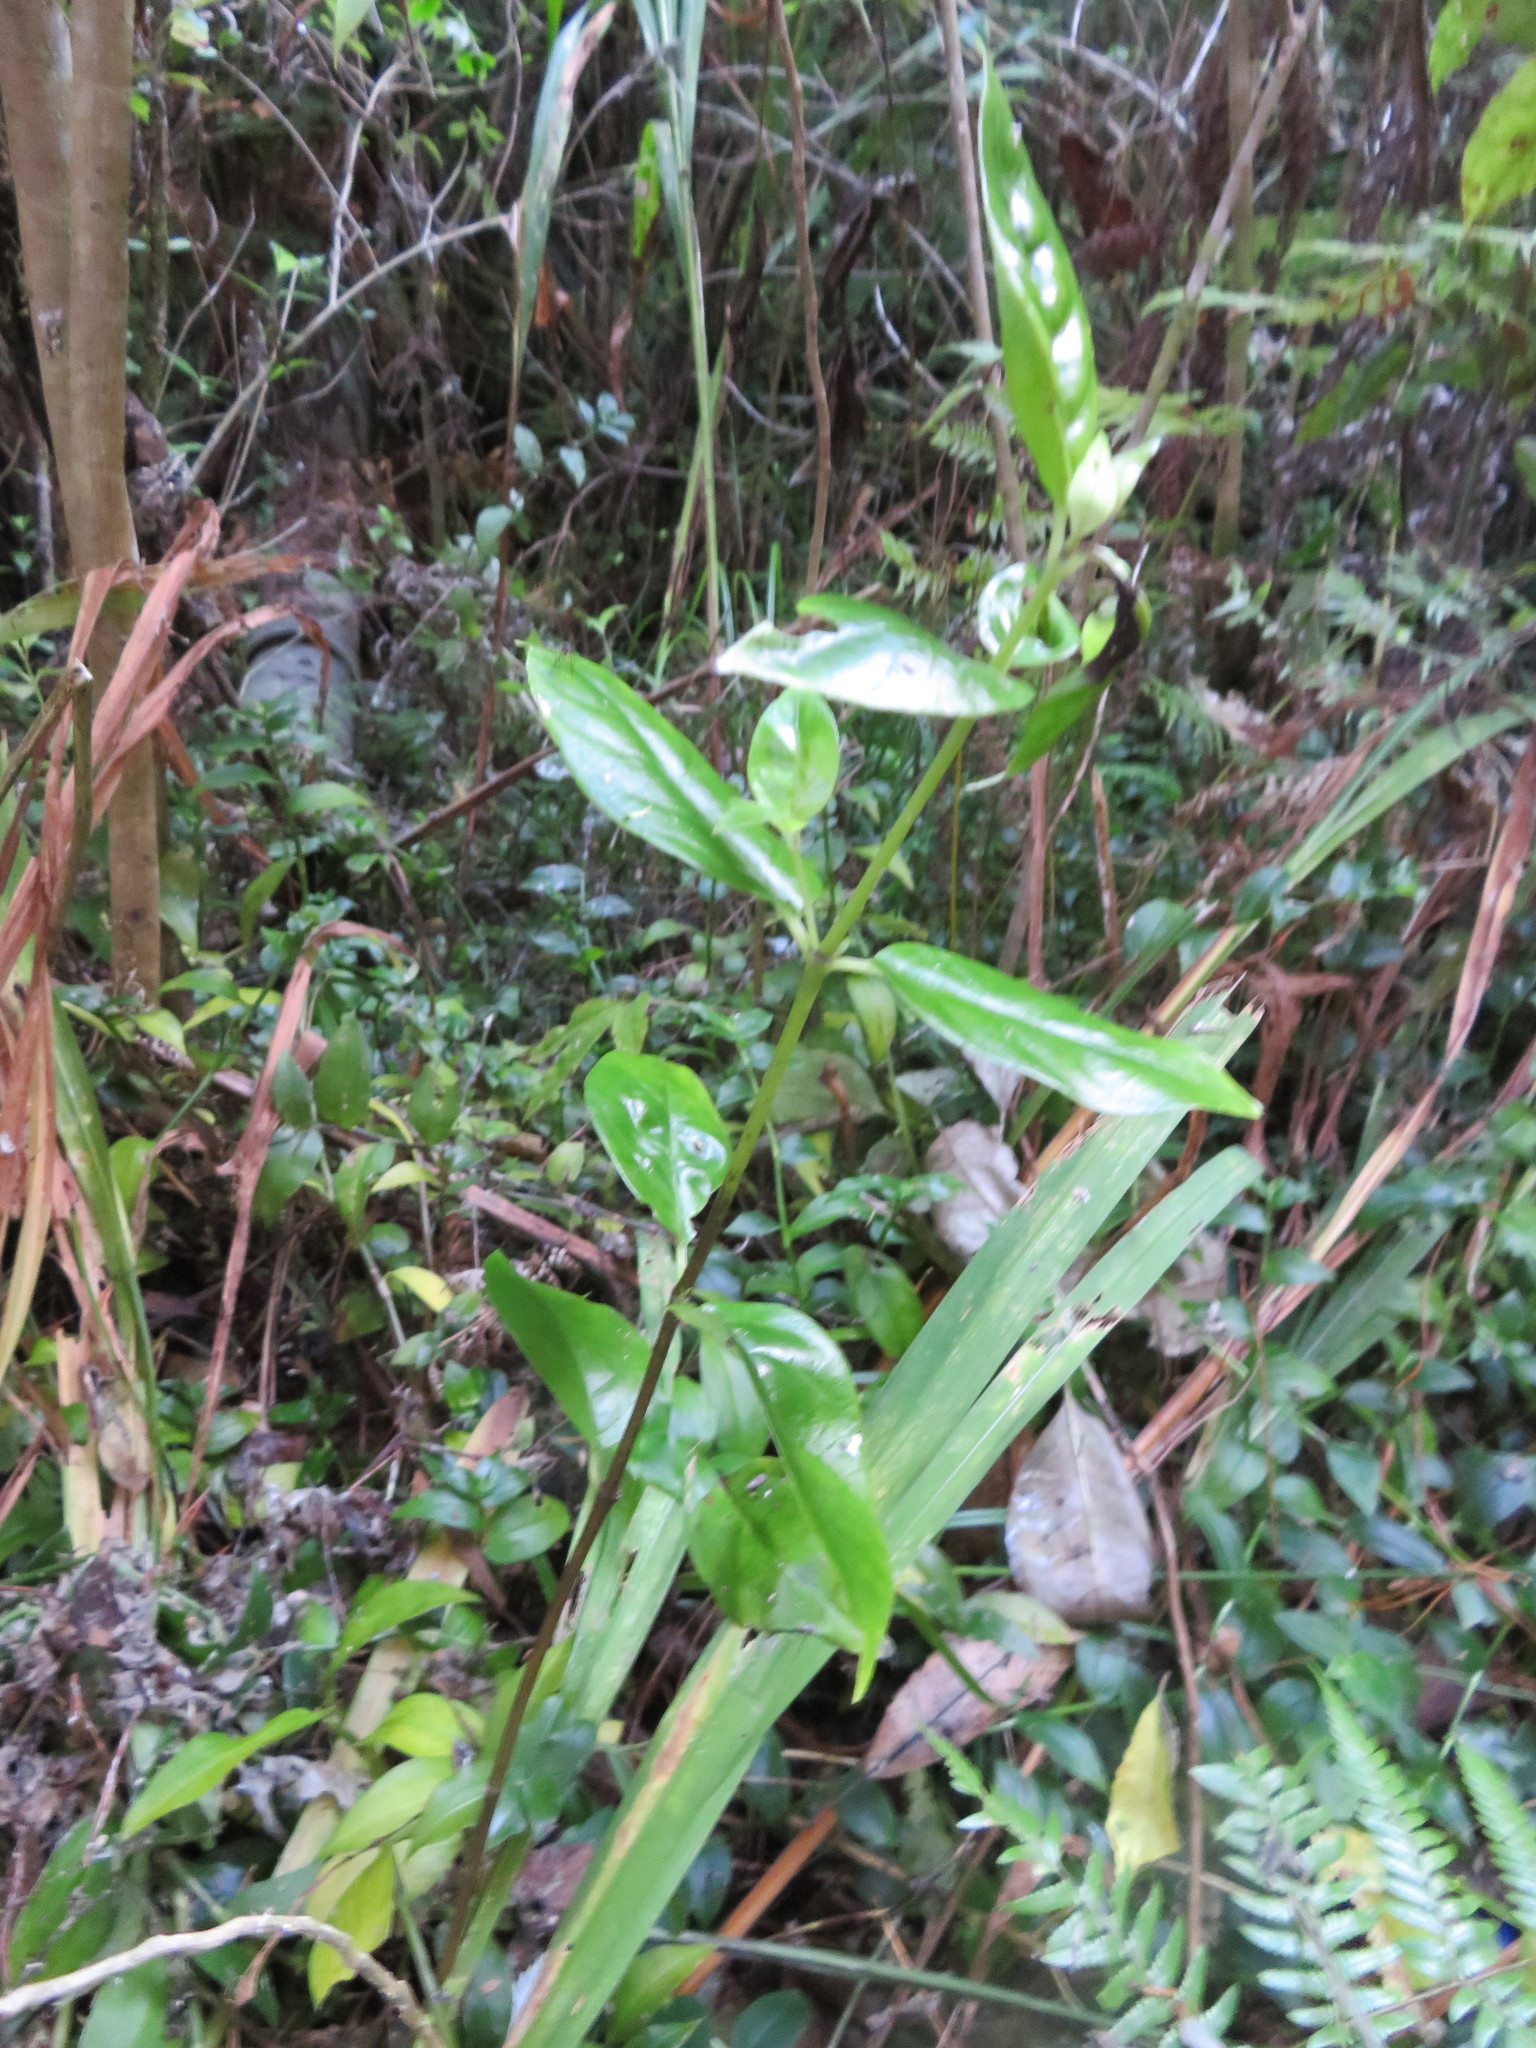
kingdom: Plantae
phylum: Tracheophyta
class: Magnoliopsida
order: Gentianales
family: Loganiaceae
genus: Geniostoma
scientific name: Geniostoma ligustrifolium
